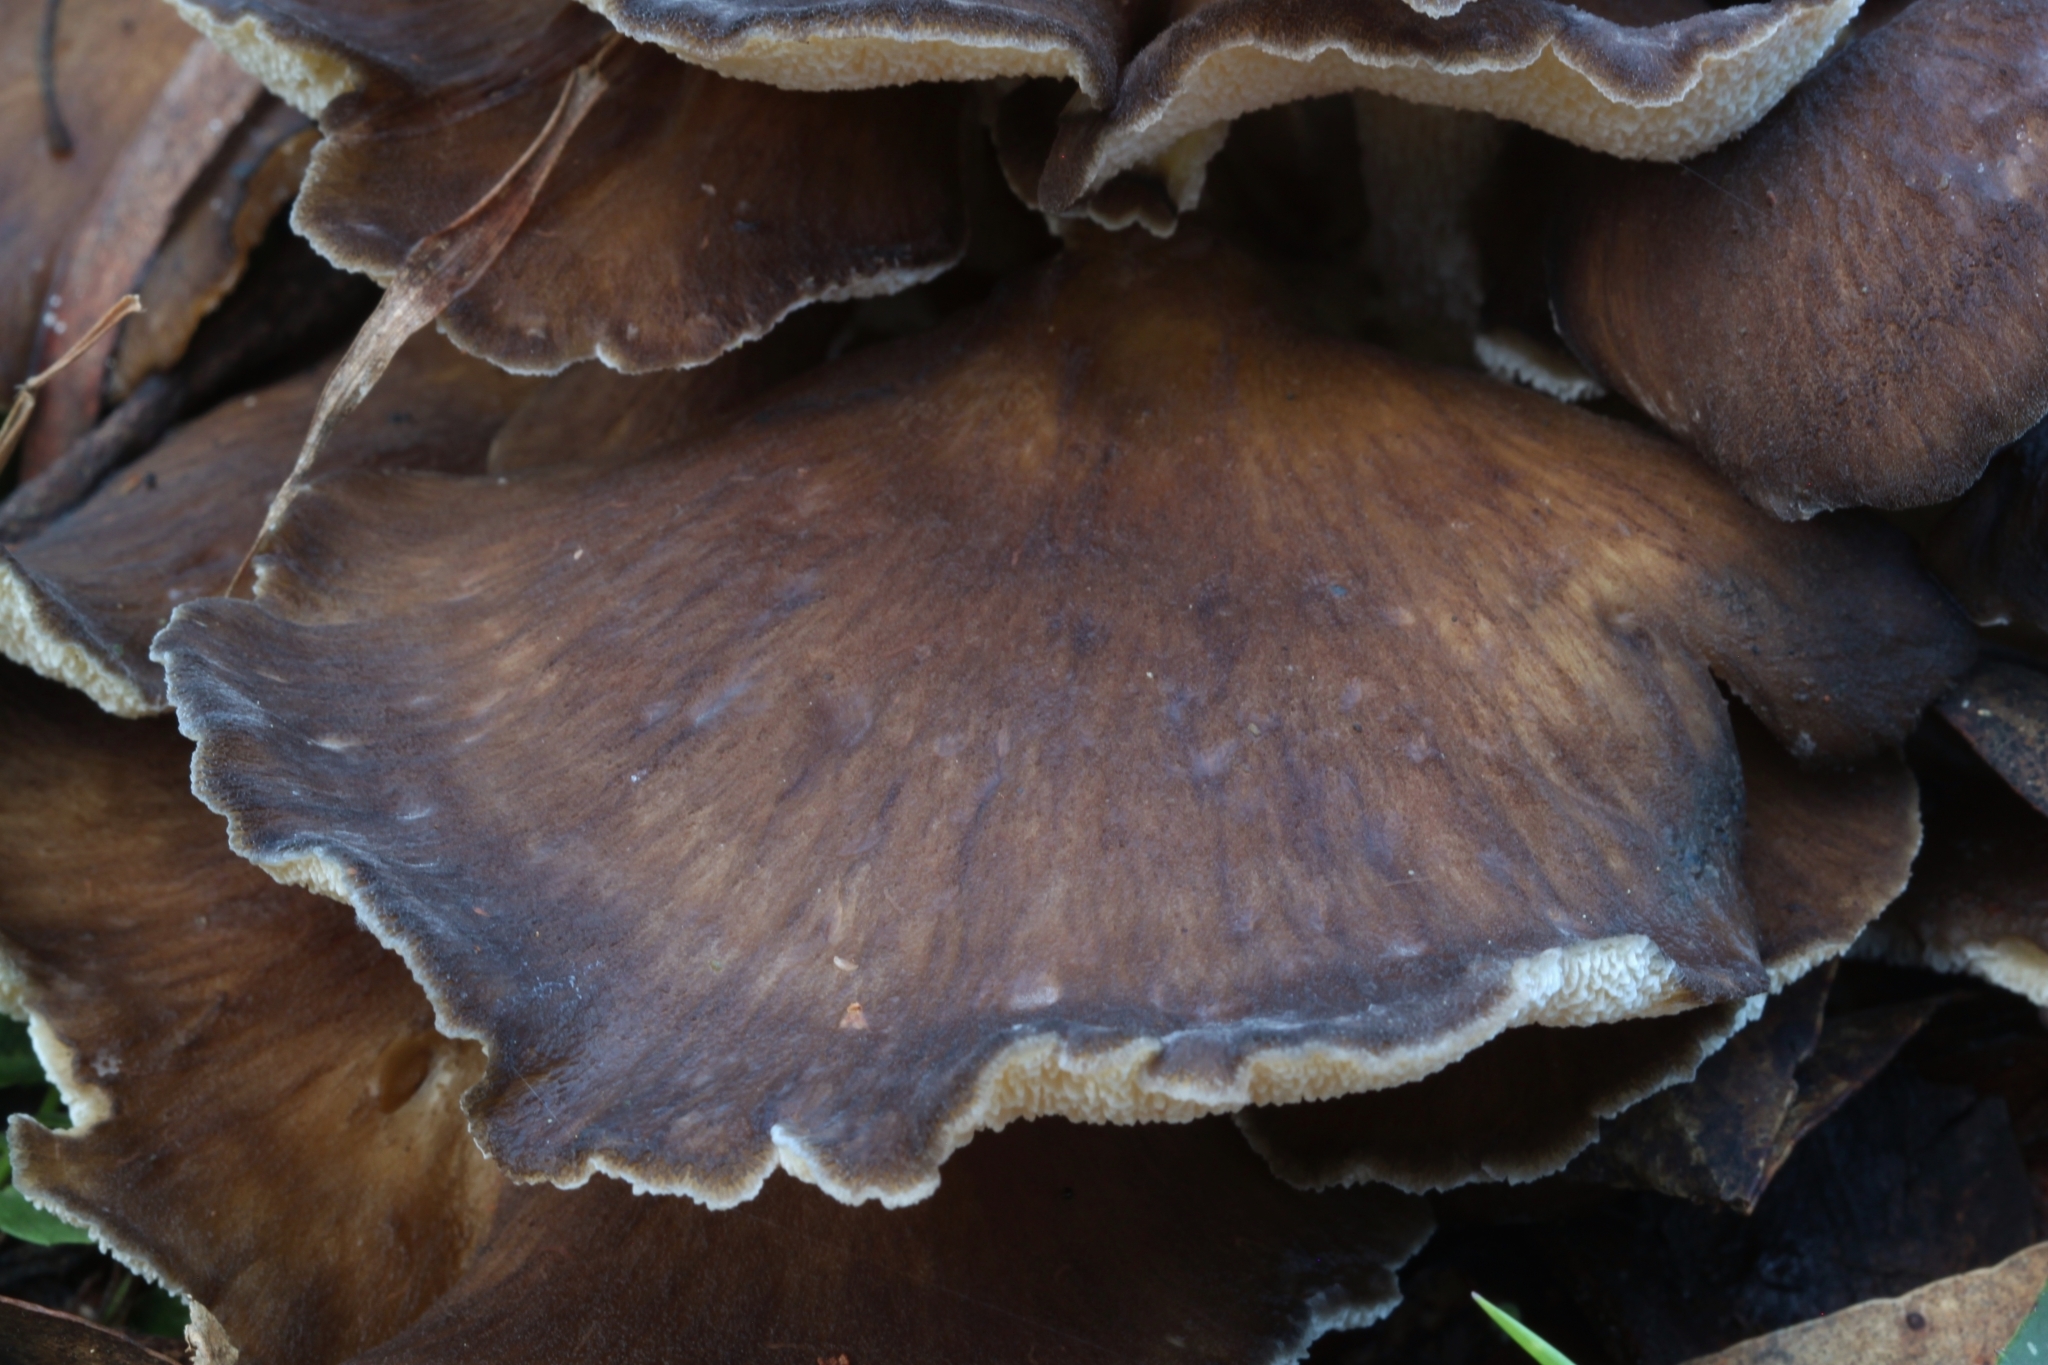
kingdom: Fungi
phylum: Basidiomycota
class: Agaricomycetes
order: Polyporales
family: Grifolaceae
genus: Grifola
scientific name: Grifola colensoi
